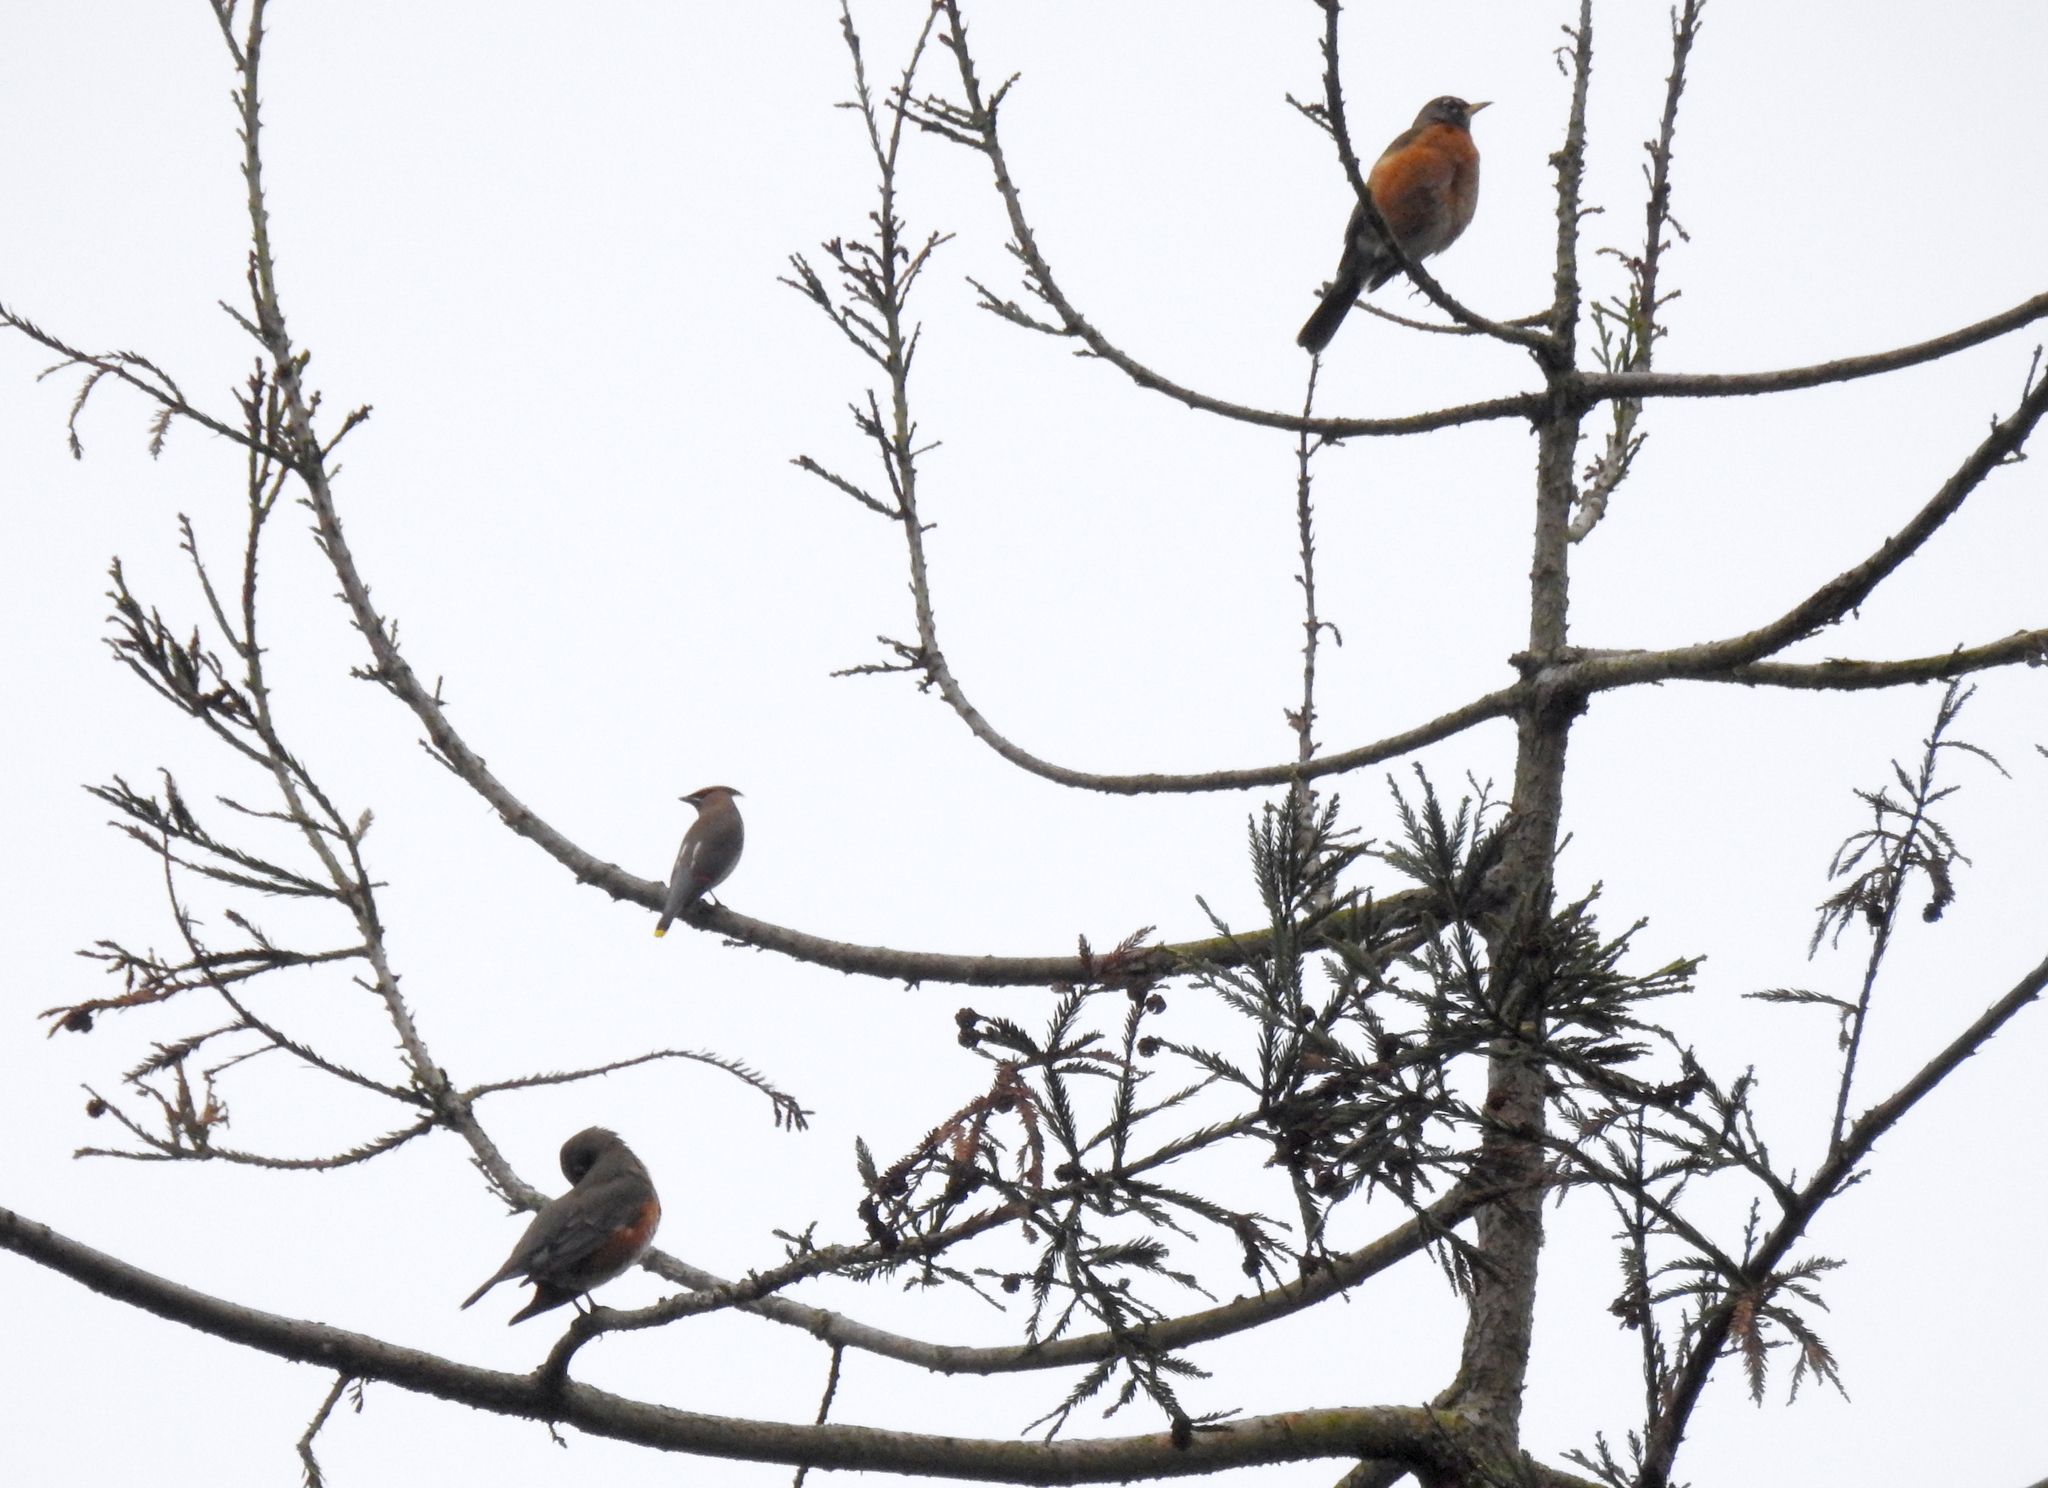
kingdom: Animalia
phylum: Chordata
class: Aves
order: Passeriformes
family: Bombycillidae
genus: Bombycilla
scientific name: Bombycilla cedrorum
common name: Cedar waxwing
